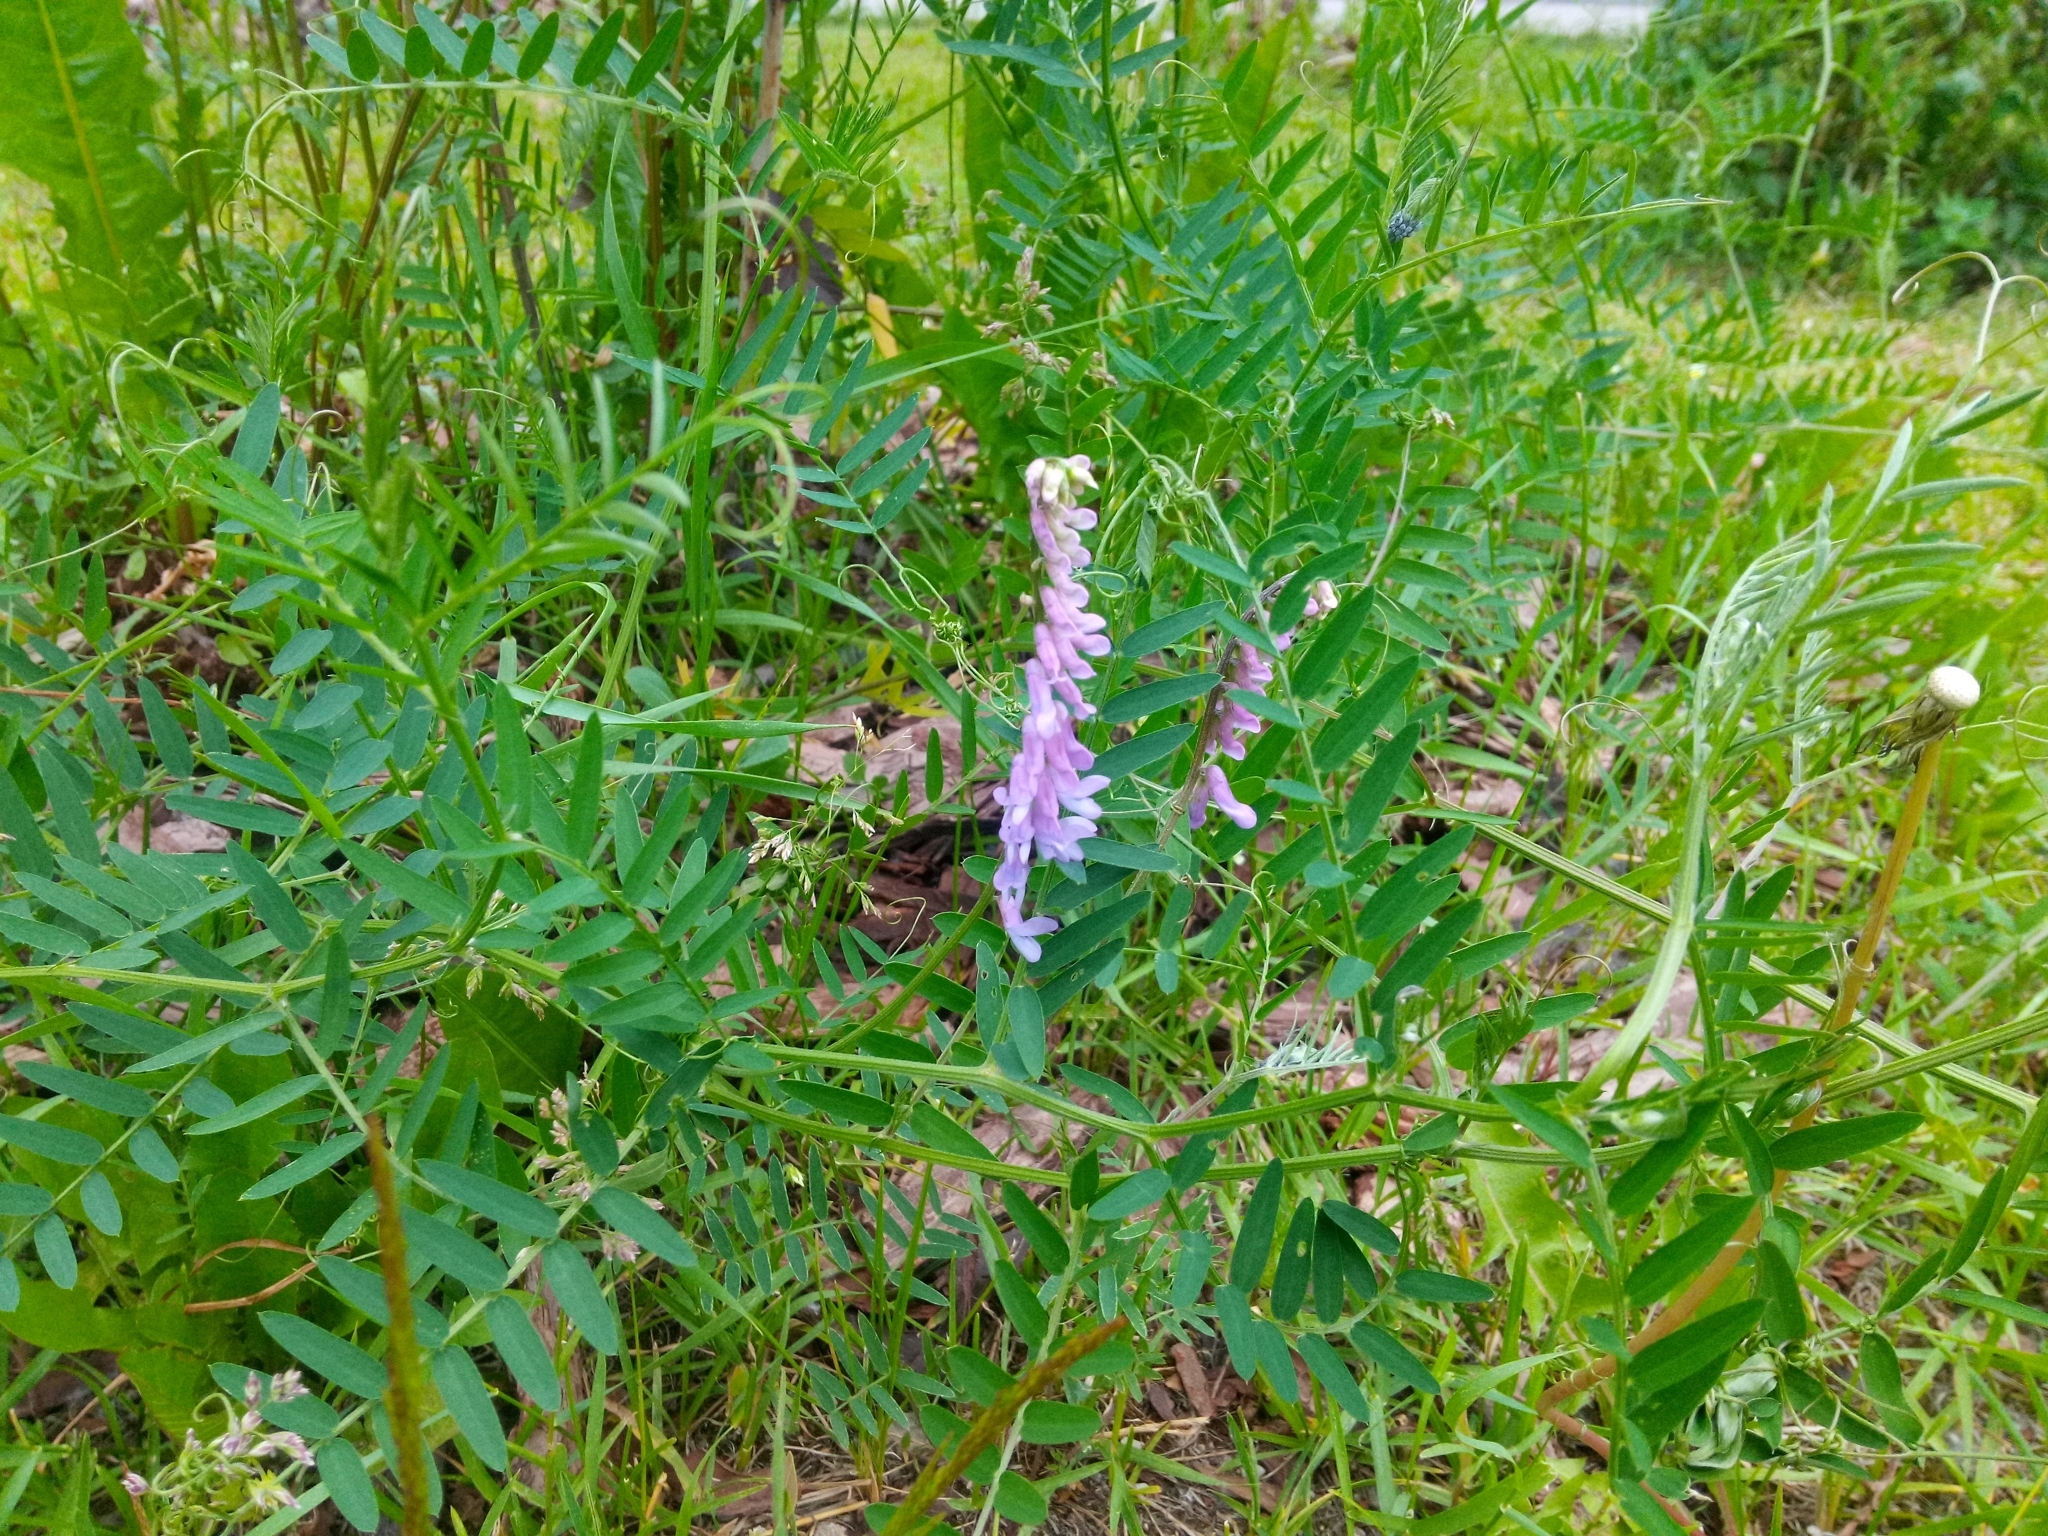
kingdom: Plantae
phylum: Tracheophyta
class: Magnoliopsida
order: Fabales
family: Fabaceae
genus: Vicia
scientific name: Vicia cracca
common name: Bird vetch
